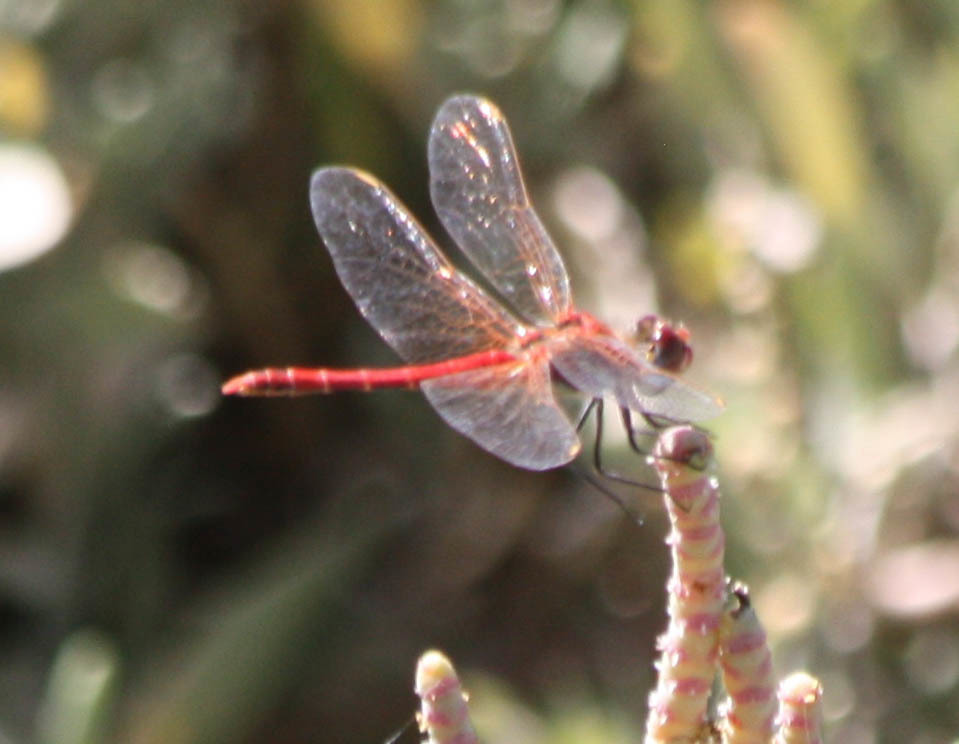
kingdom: Animalia
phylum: Arthropoda
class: Insecta
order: Odonata
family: Libellulidae
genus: Sympetrum
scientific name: Sympetrum fonscolombii
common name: Red-veined darter
